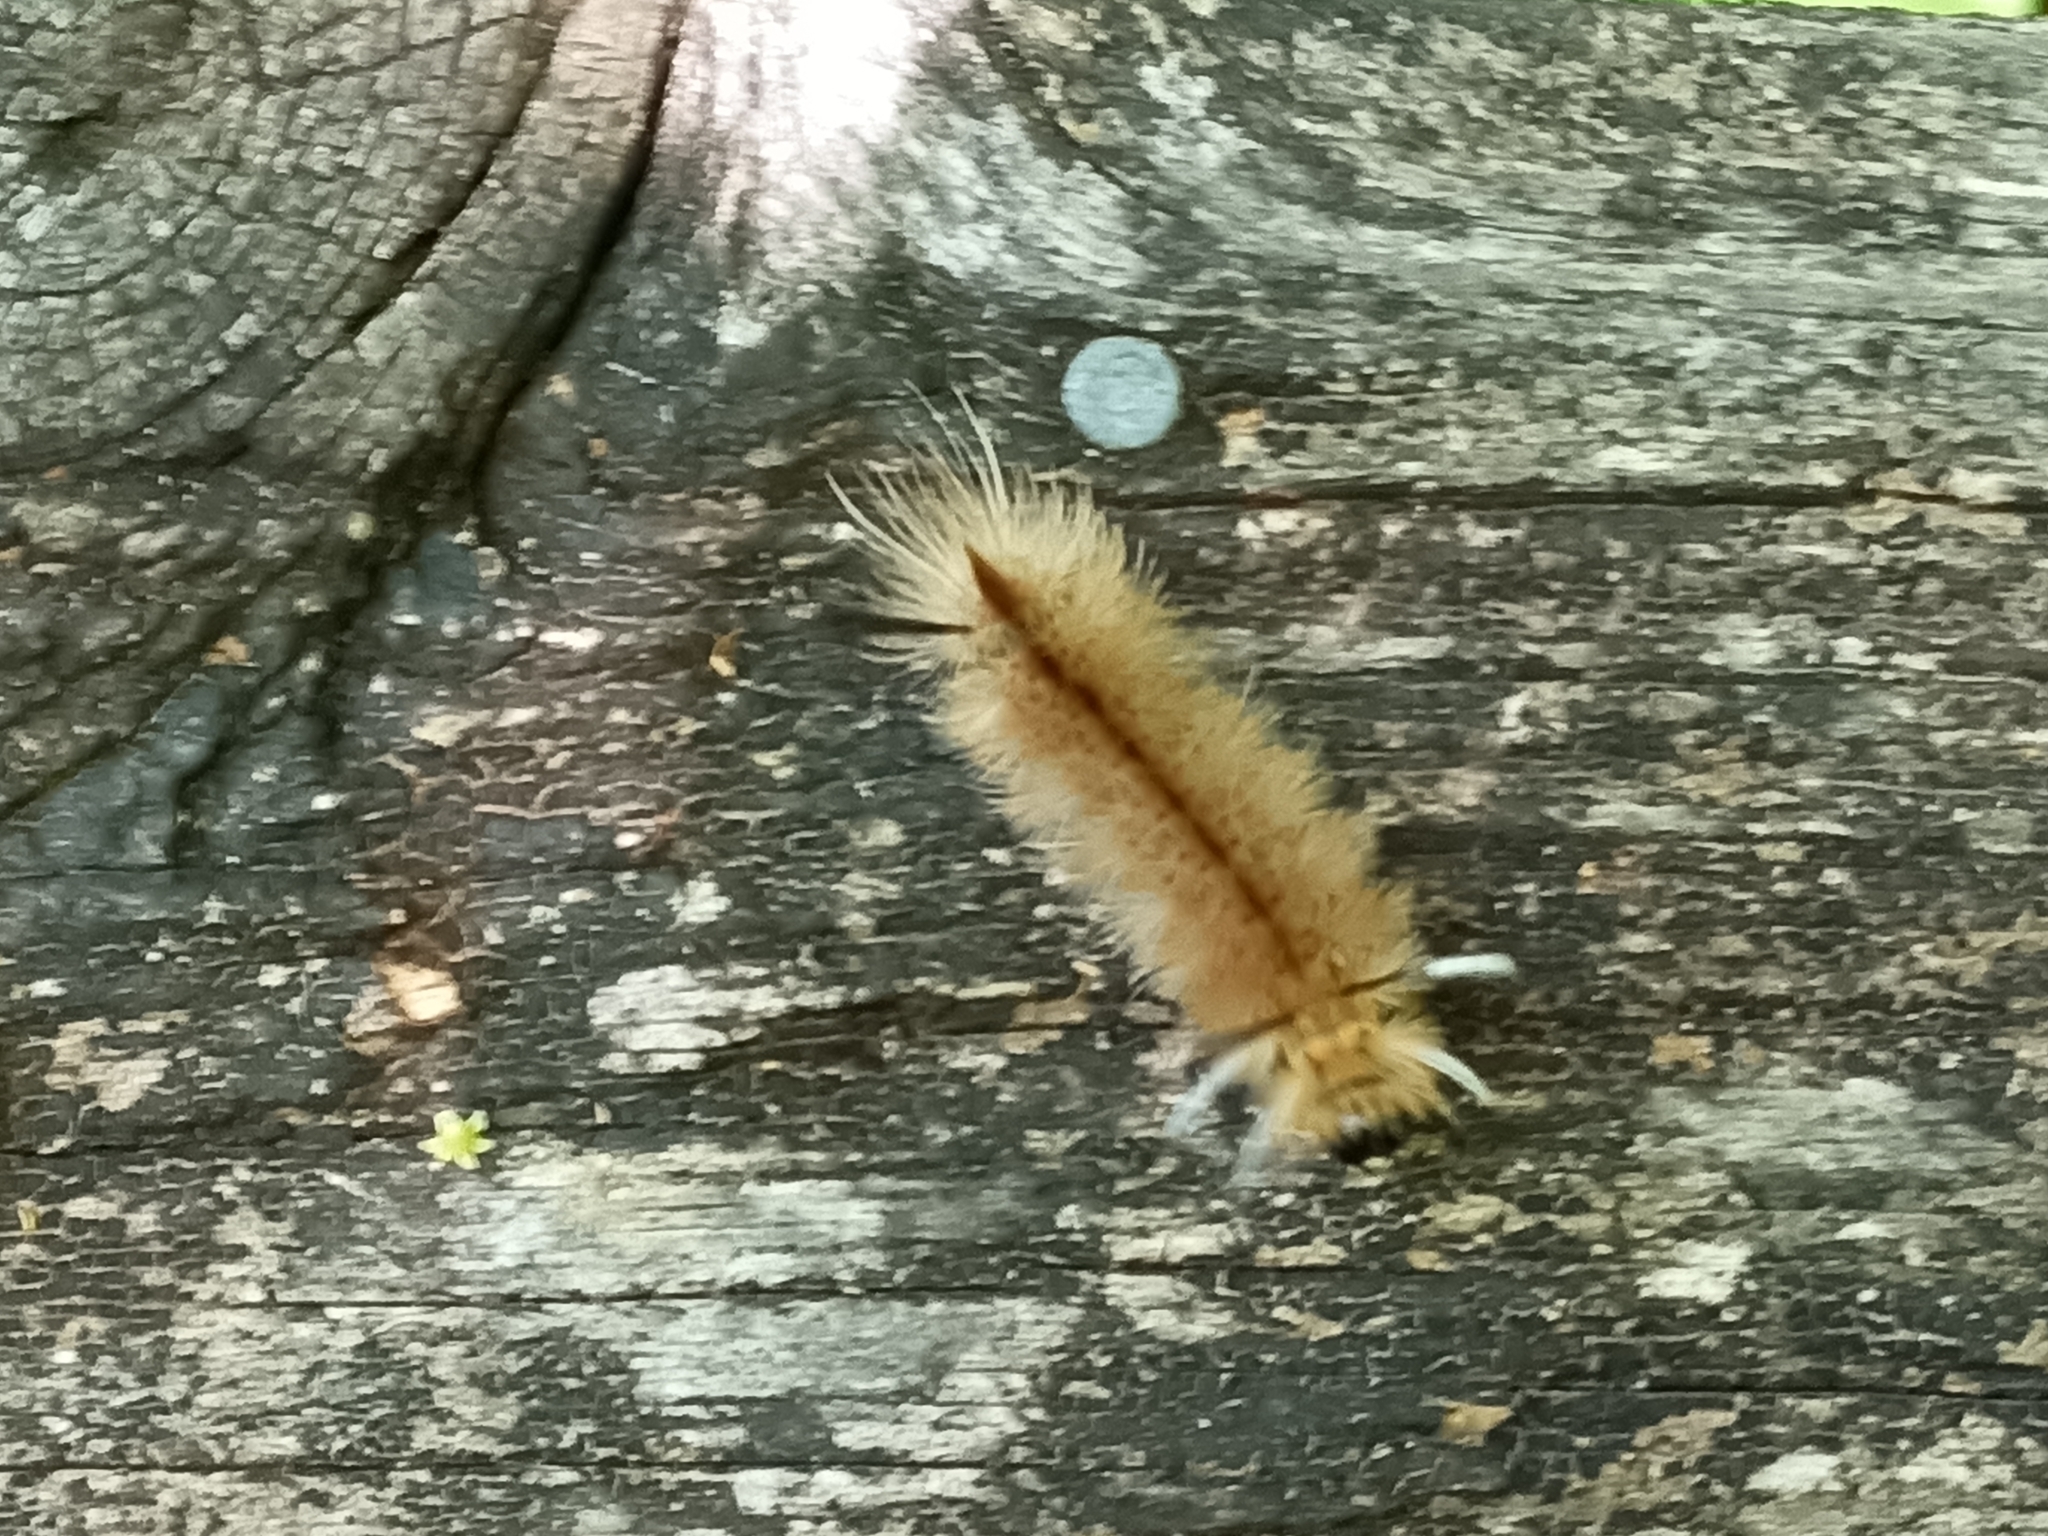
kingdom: Animalia
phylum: Arthropoda
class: Insecta
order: Lepidoptera
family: Erebidae
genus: Halysidota
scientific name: Halysidota tessellaris
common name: Banded tussock moth
